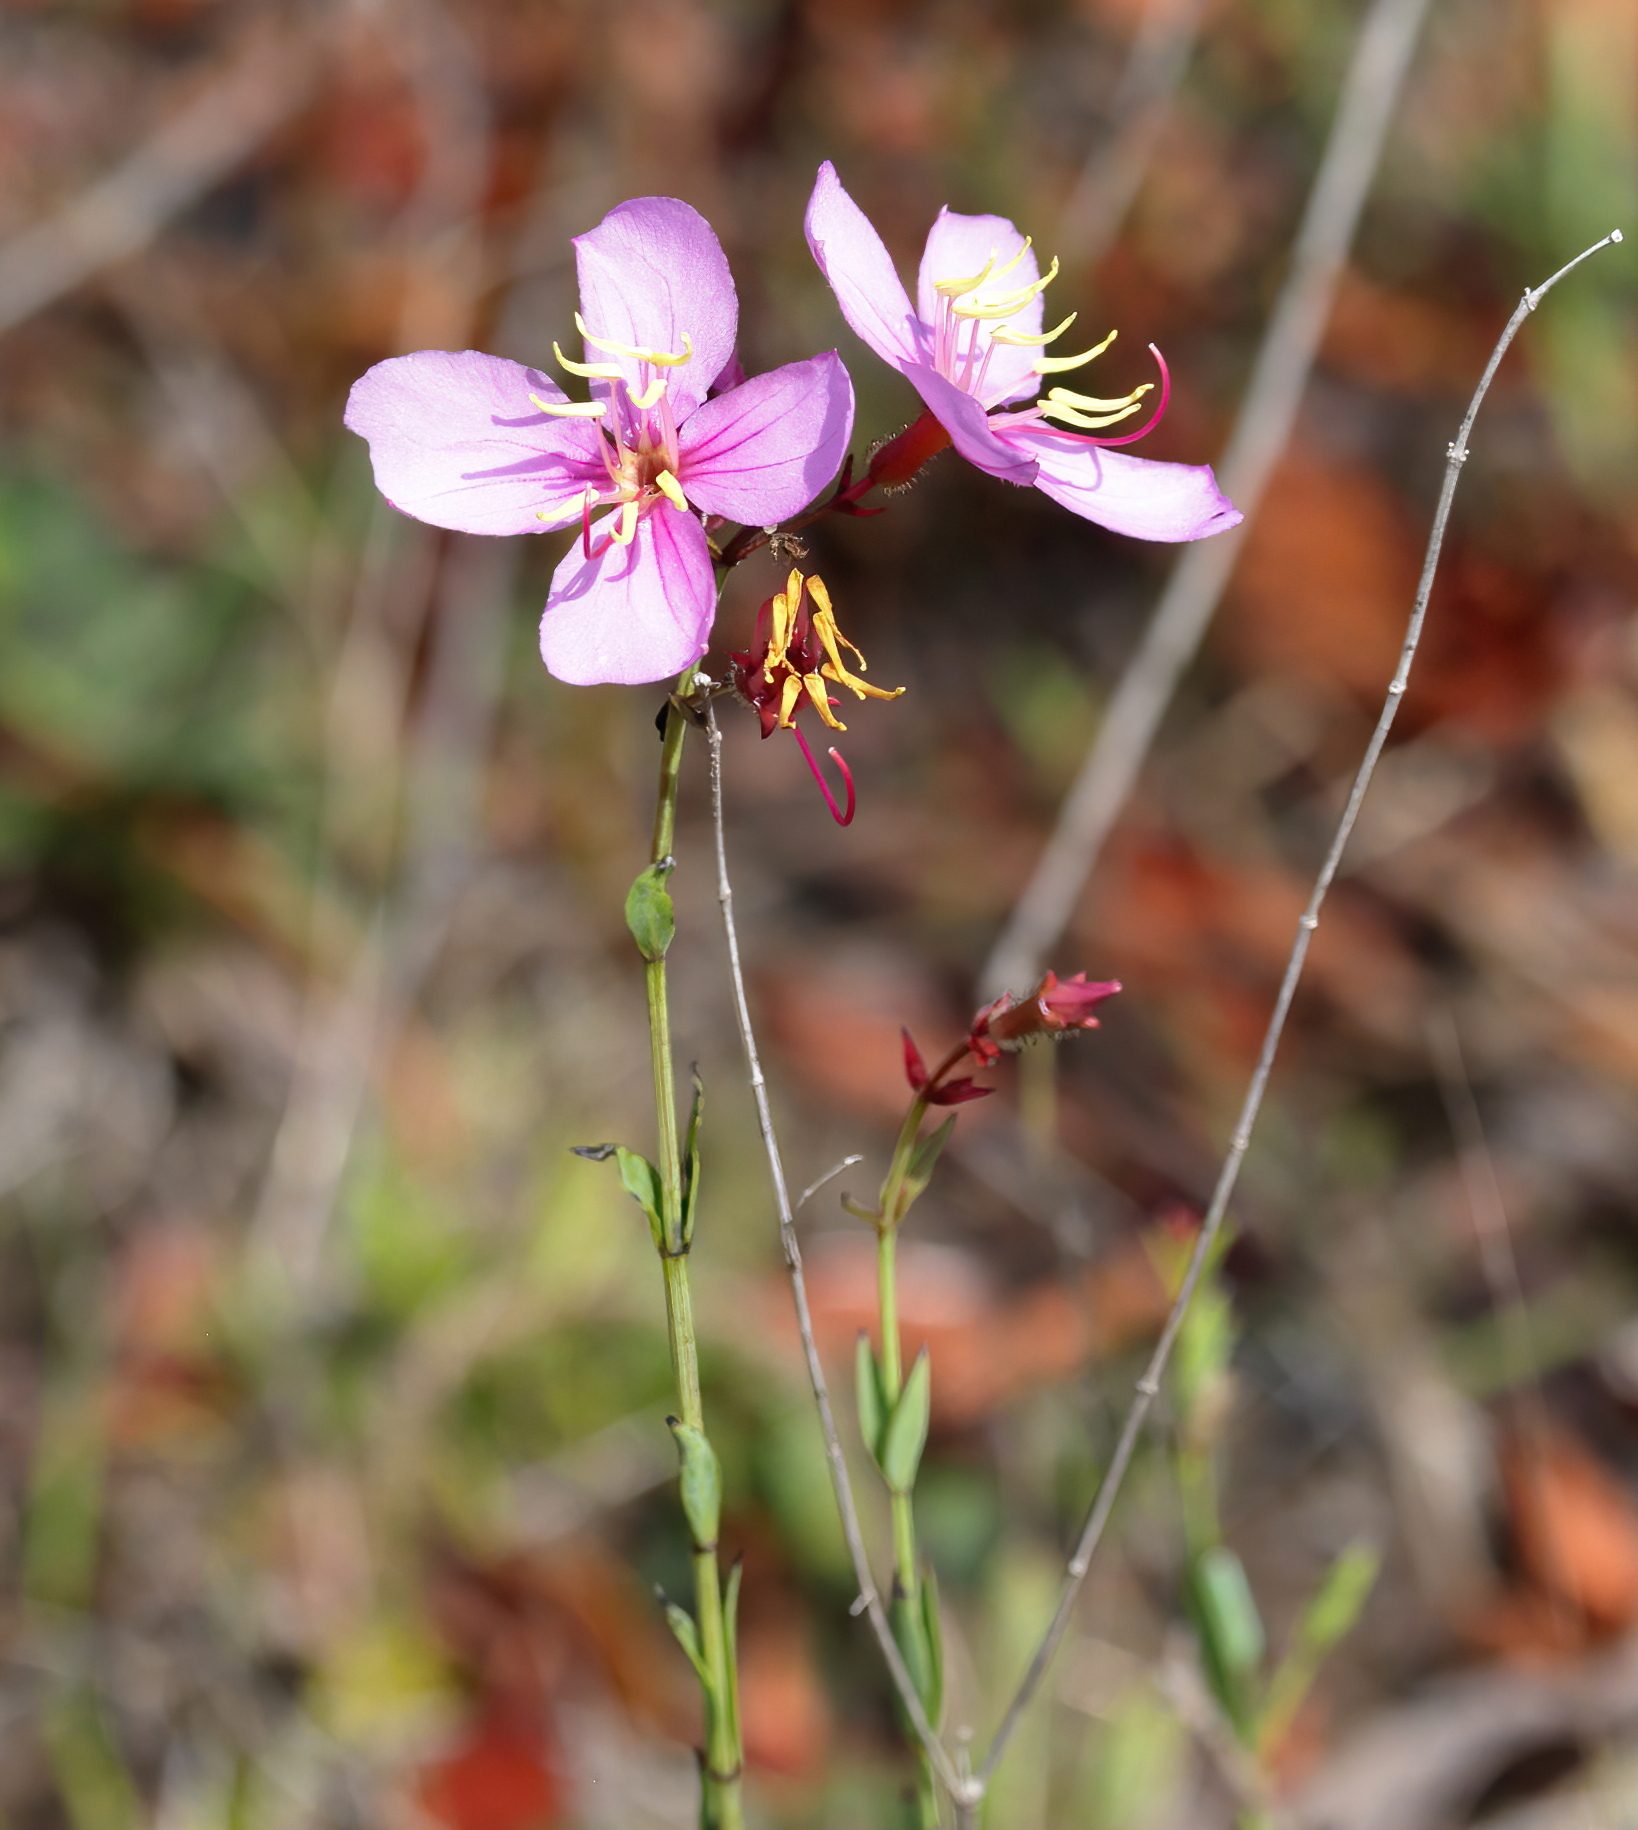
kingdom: Plantae
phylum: Tracheophyta
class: Magnoliopsida
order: Myrtales
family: Melastomataceae
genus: Rhexia
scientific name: Rhexia alifanus
